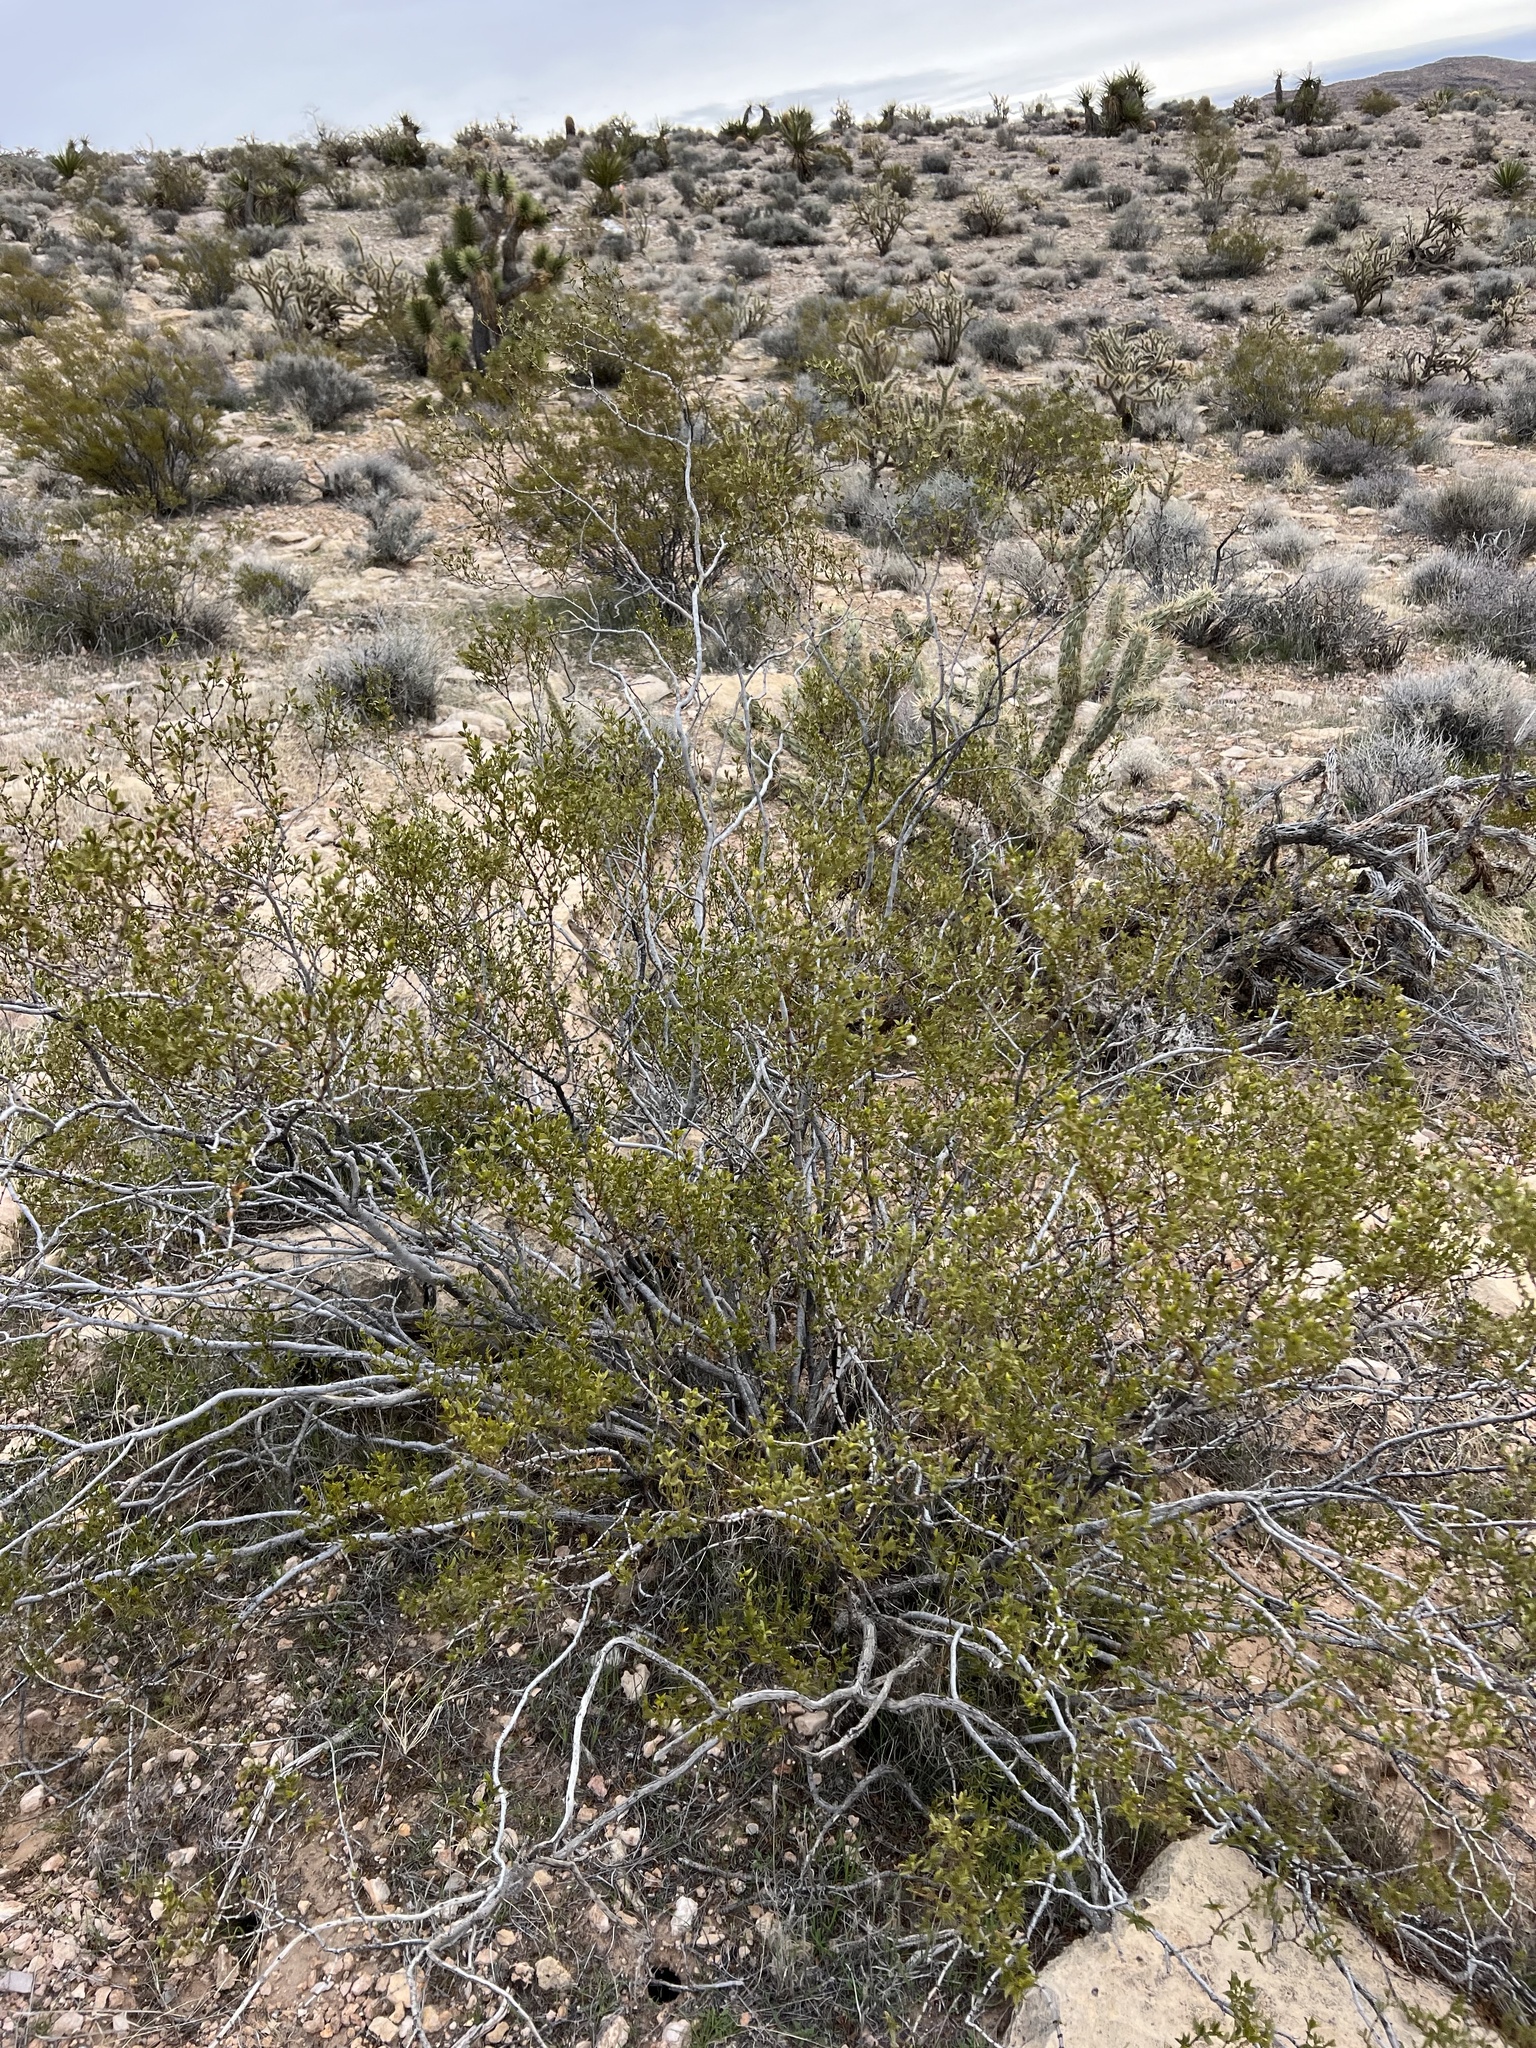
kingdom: Plantae
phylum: Tracheophyta
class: Magnoliopsida
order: Zygophyllales
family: Zygophyllaceae
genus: Larrea
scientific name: Larrea tridentata
